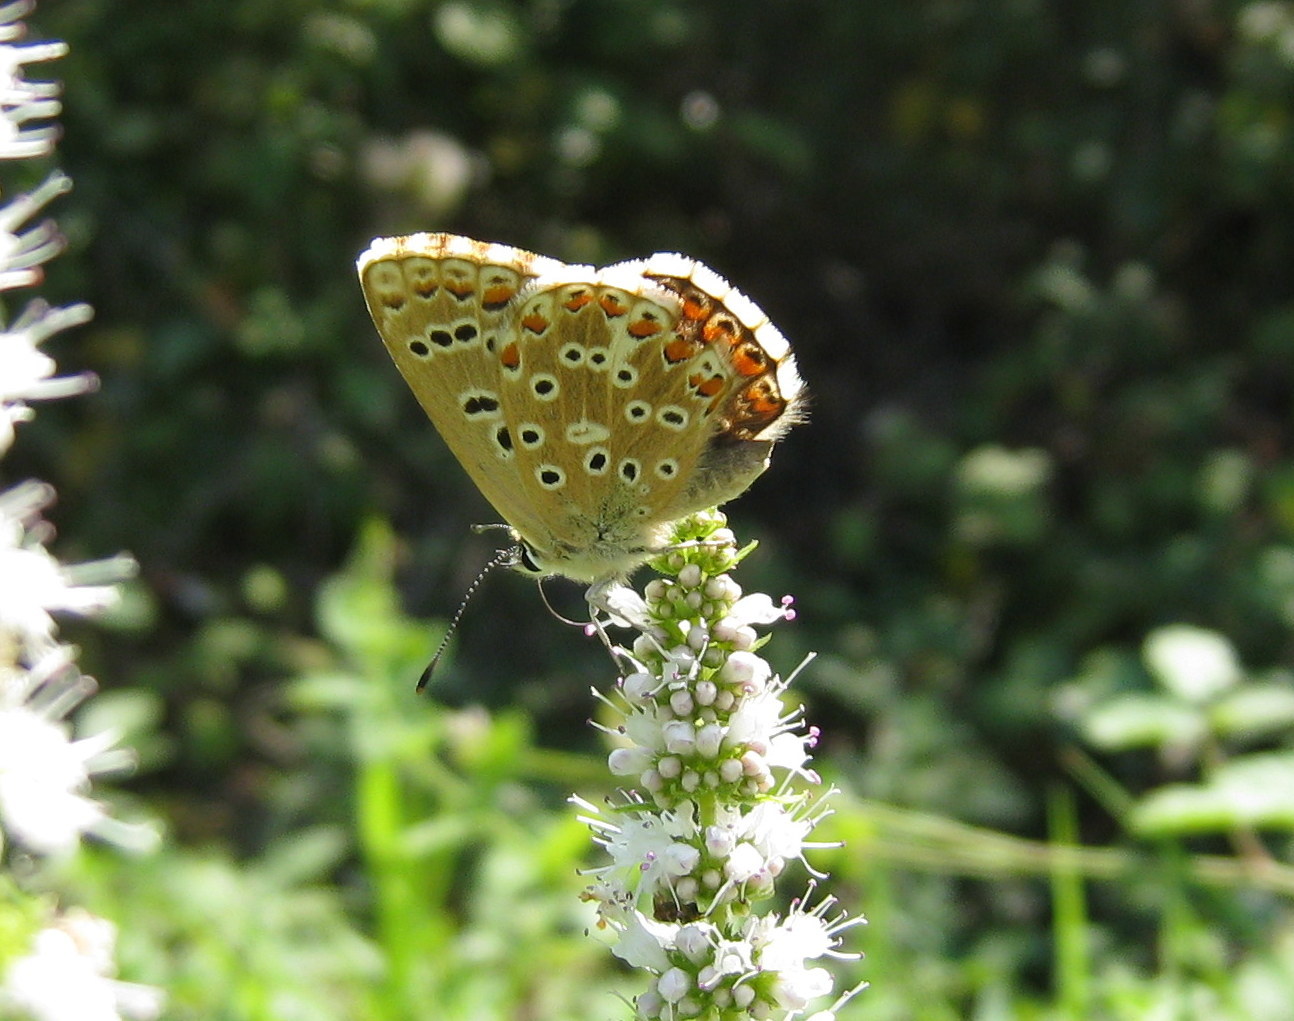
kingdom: Animalia
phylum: Arthropoda
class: Insecta
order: Lepidoptera
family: Lycaenidae
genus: Lysandra
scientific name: Lysandra bellargus
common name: Adonis blue
